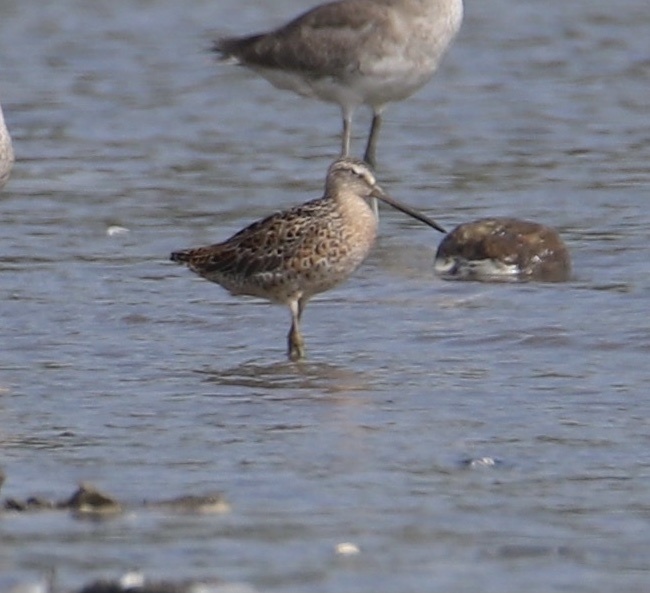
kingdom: Animalia
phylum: Chordata
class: Aves
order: Charadriiformes
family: Scolopacidae
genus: Limnodromus
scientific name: Limnodromus griseus
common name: Short-billed dowitcher
